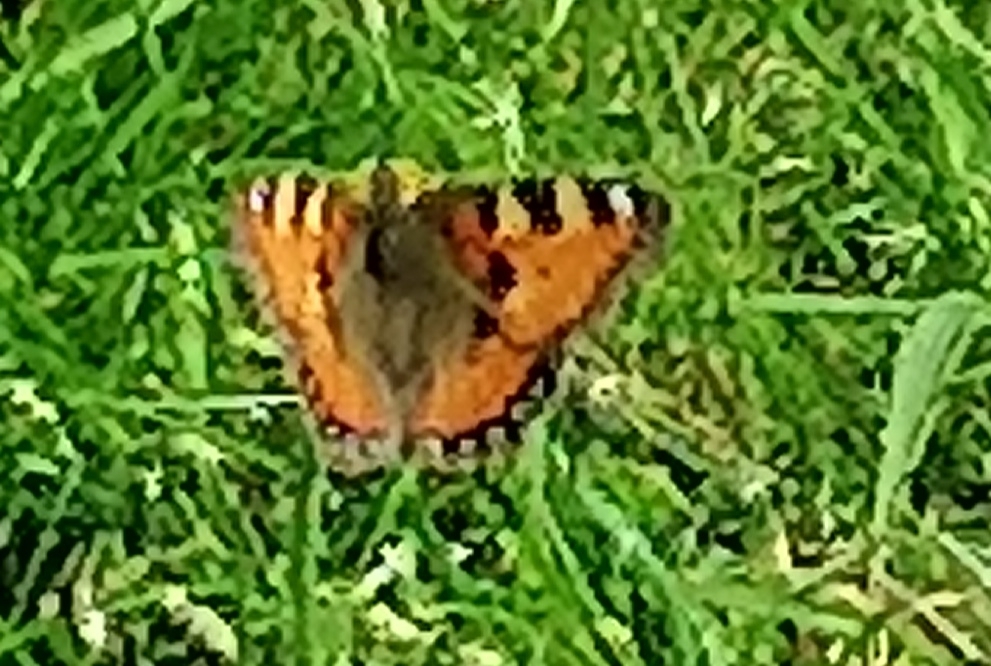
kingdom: Animalia
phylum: Arthropoda
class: Insecta
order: Lepidoptera
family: Nymphalidae
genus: Aglais
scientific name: Aglais urticae
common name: Small tortoiseshell
